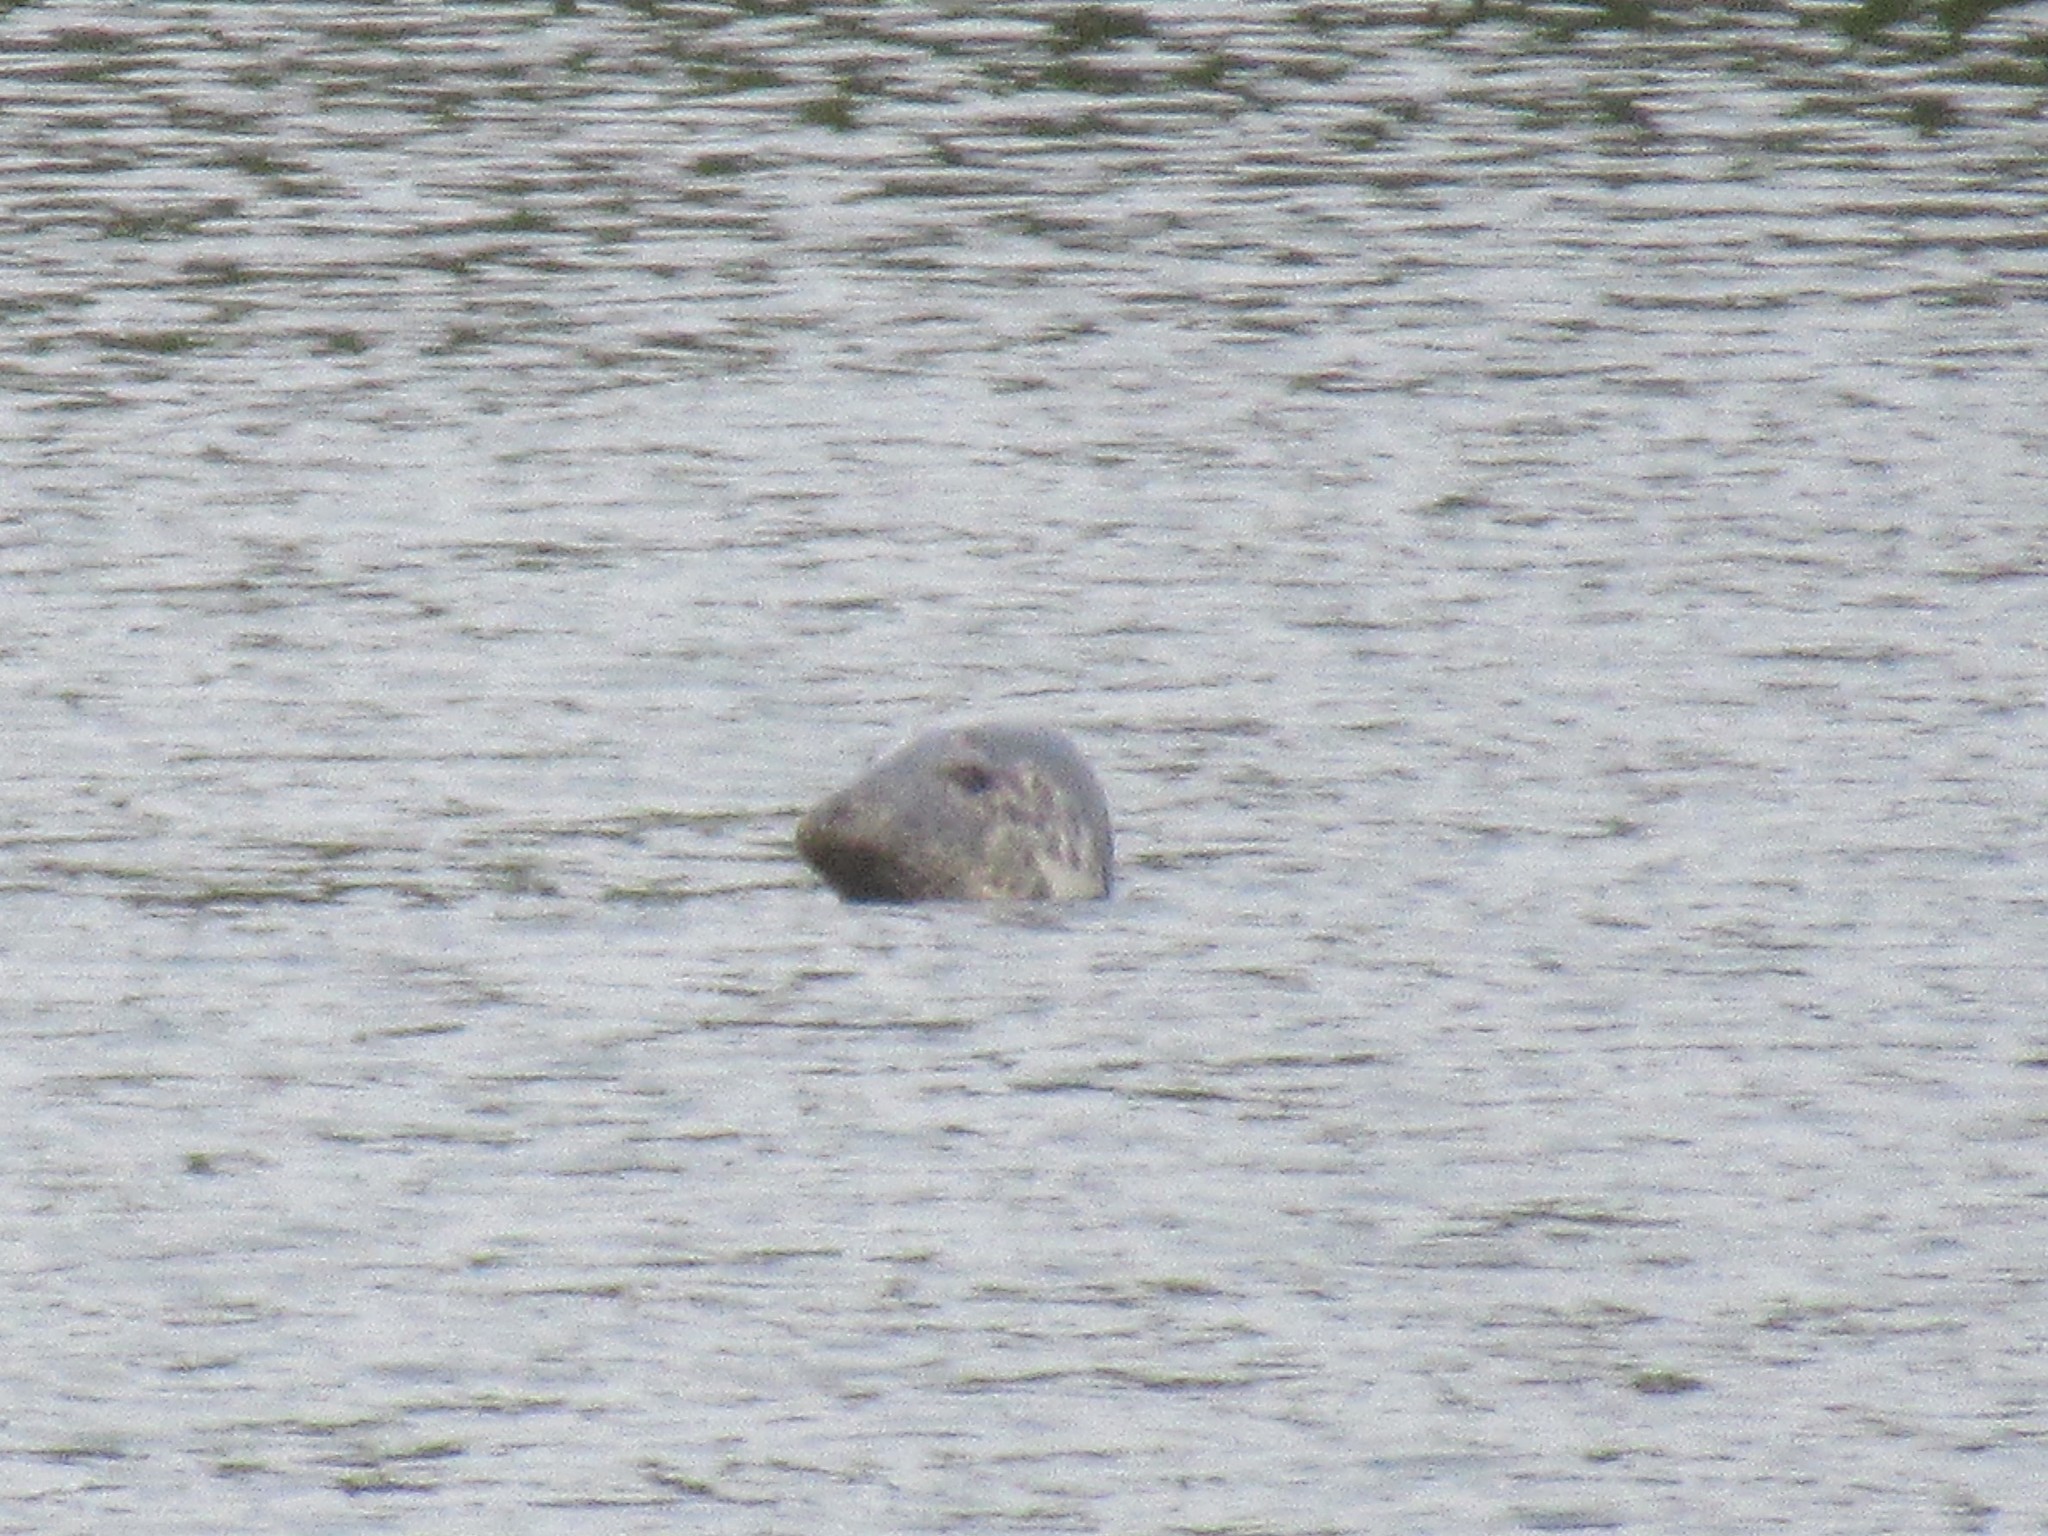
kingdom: Animalia
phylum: Chordata
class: Mammalia
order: Carnivora
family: Phocidae
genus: Halichoerus
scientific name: Halichoerus grypus
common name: Grey seal
